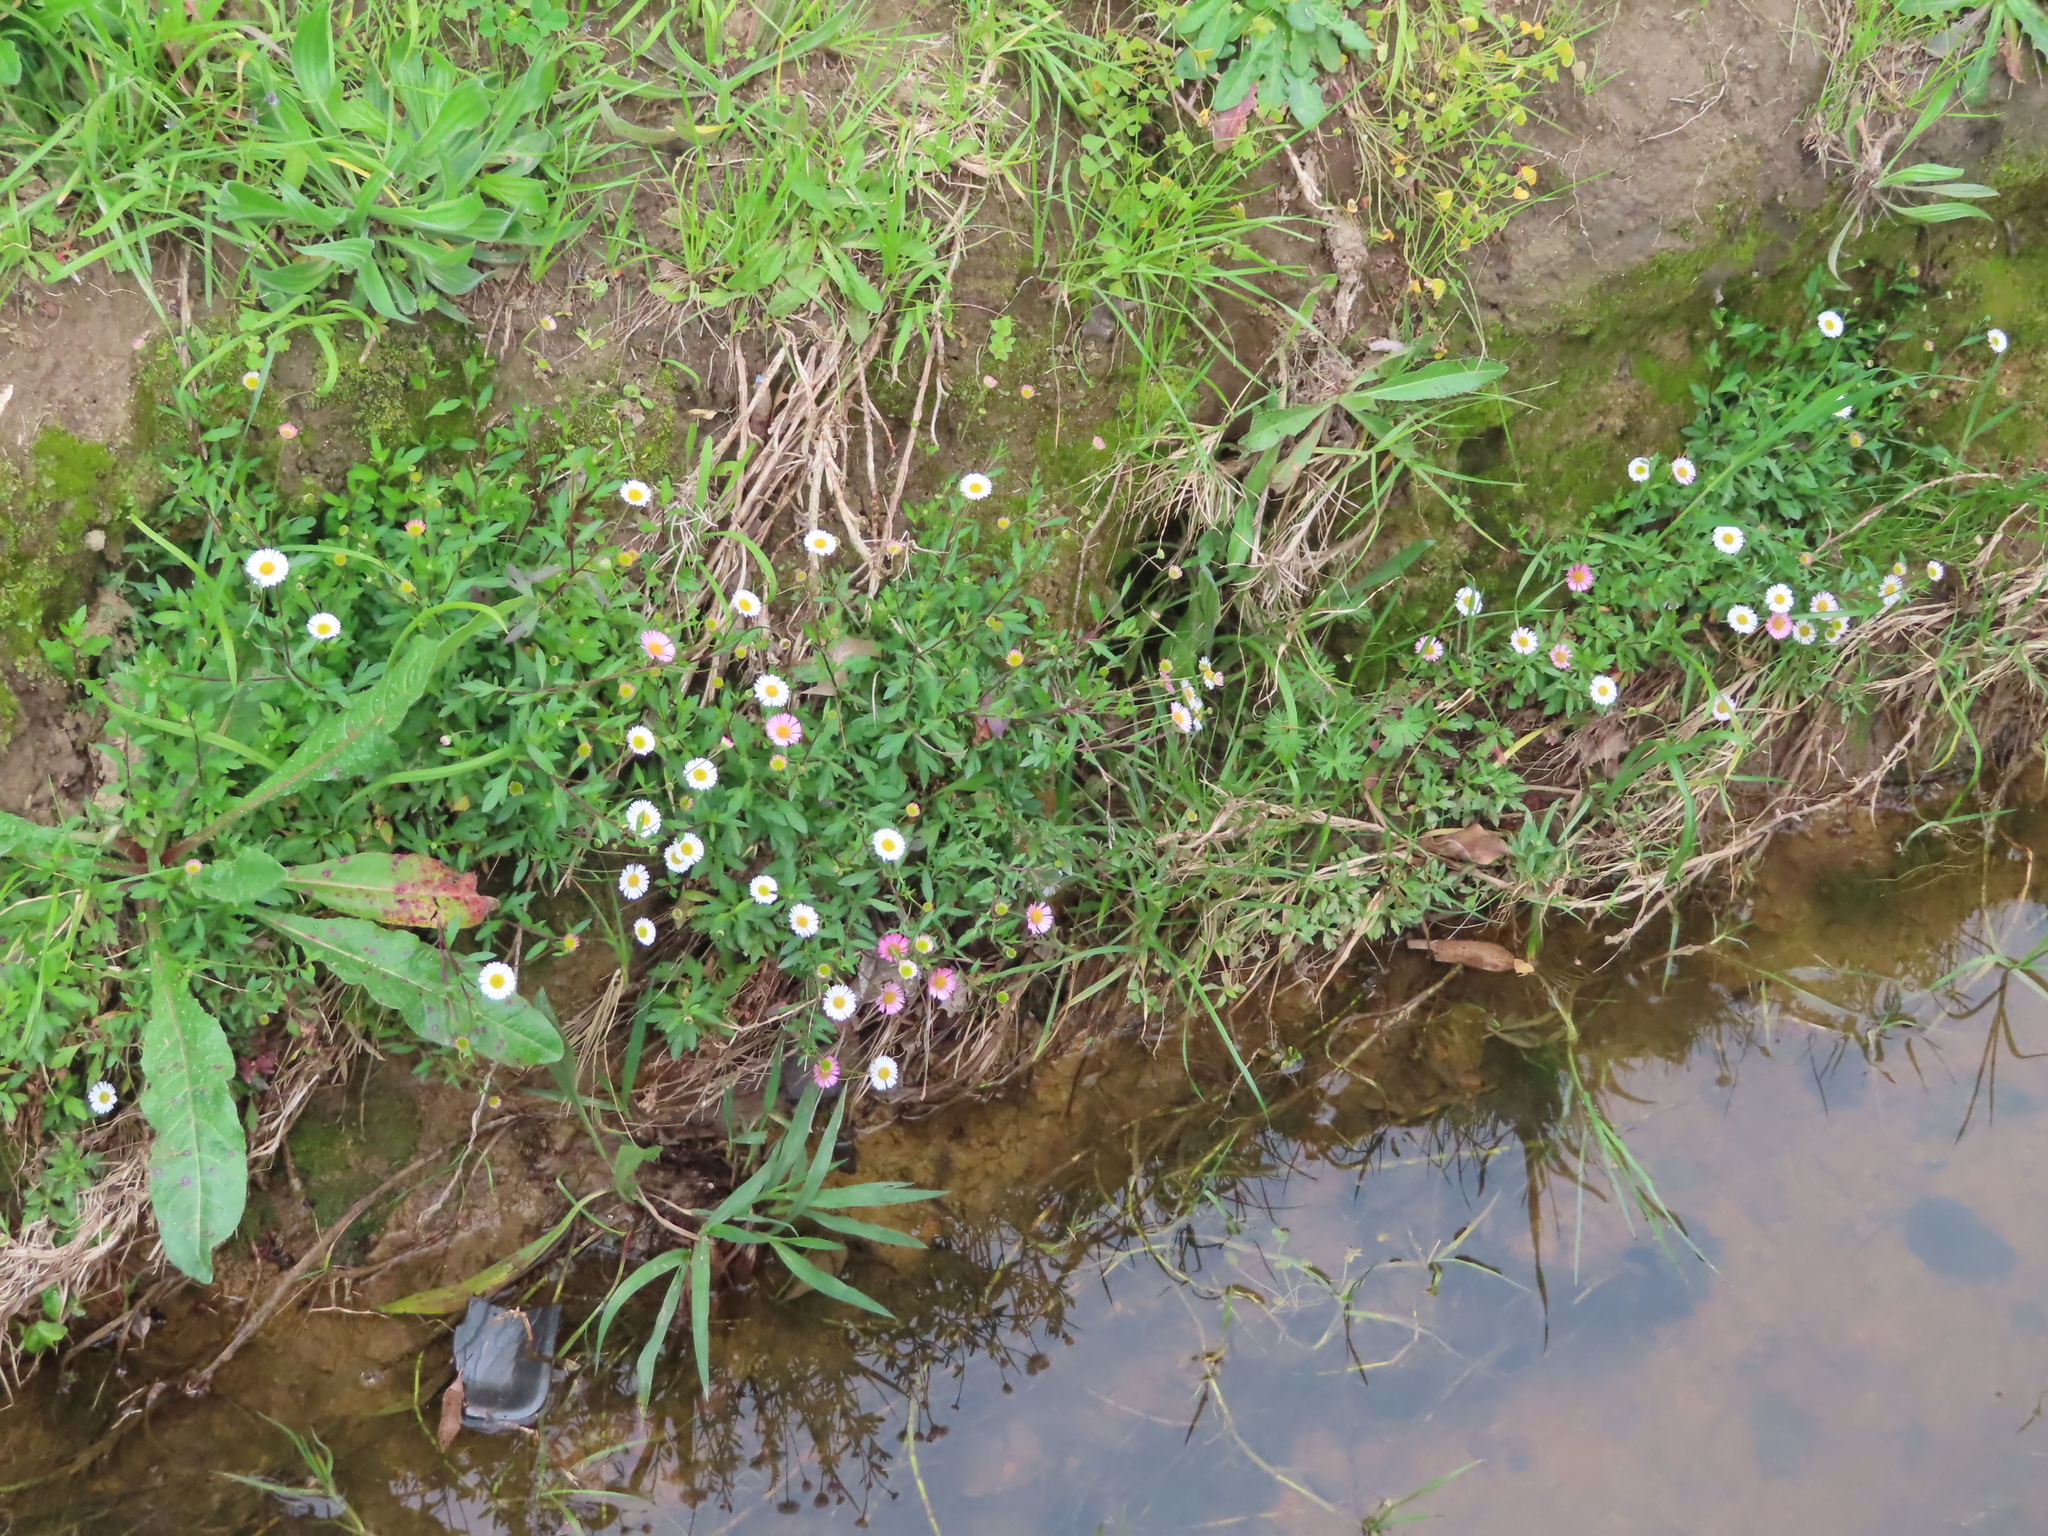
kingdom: Plantae
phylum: Tracheophyta
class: Magnoliopsida
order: Asterales
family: Asteraceae
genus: Erigeron
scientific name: Erigeron karvinskianus
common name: Mexican fleabane
